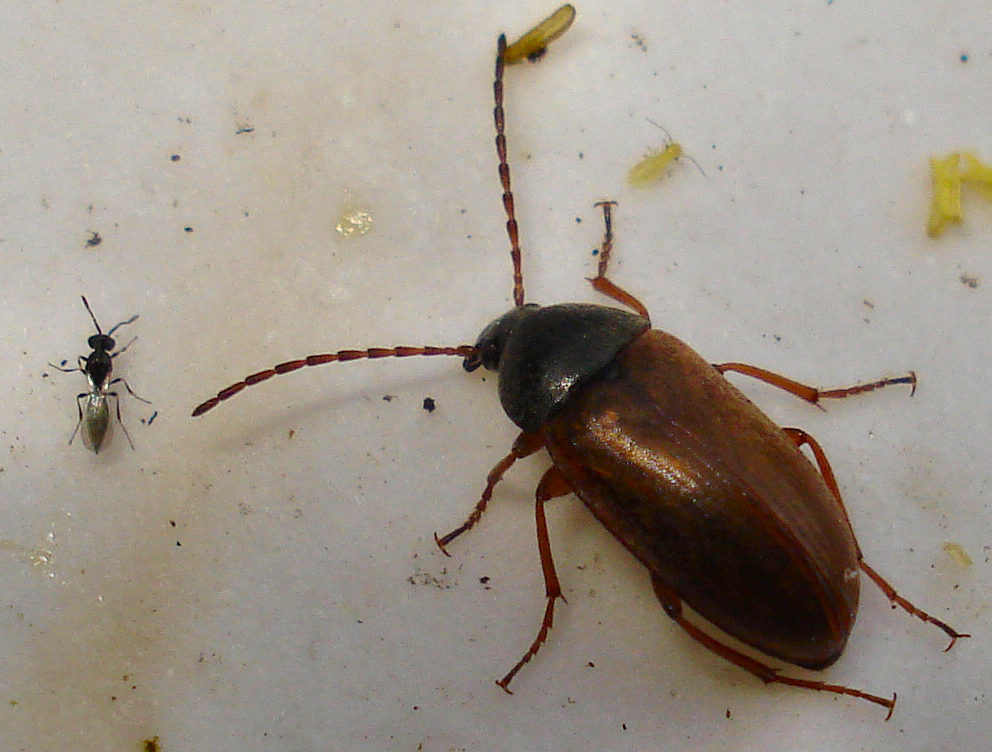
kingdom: Animalia
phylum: Arthropoda
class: Insecta
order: Coleoptera
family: Tenebrionidae
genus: Isomira
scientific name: Isomira murina
